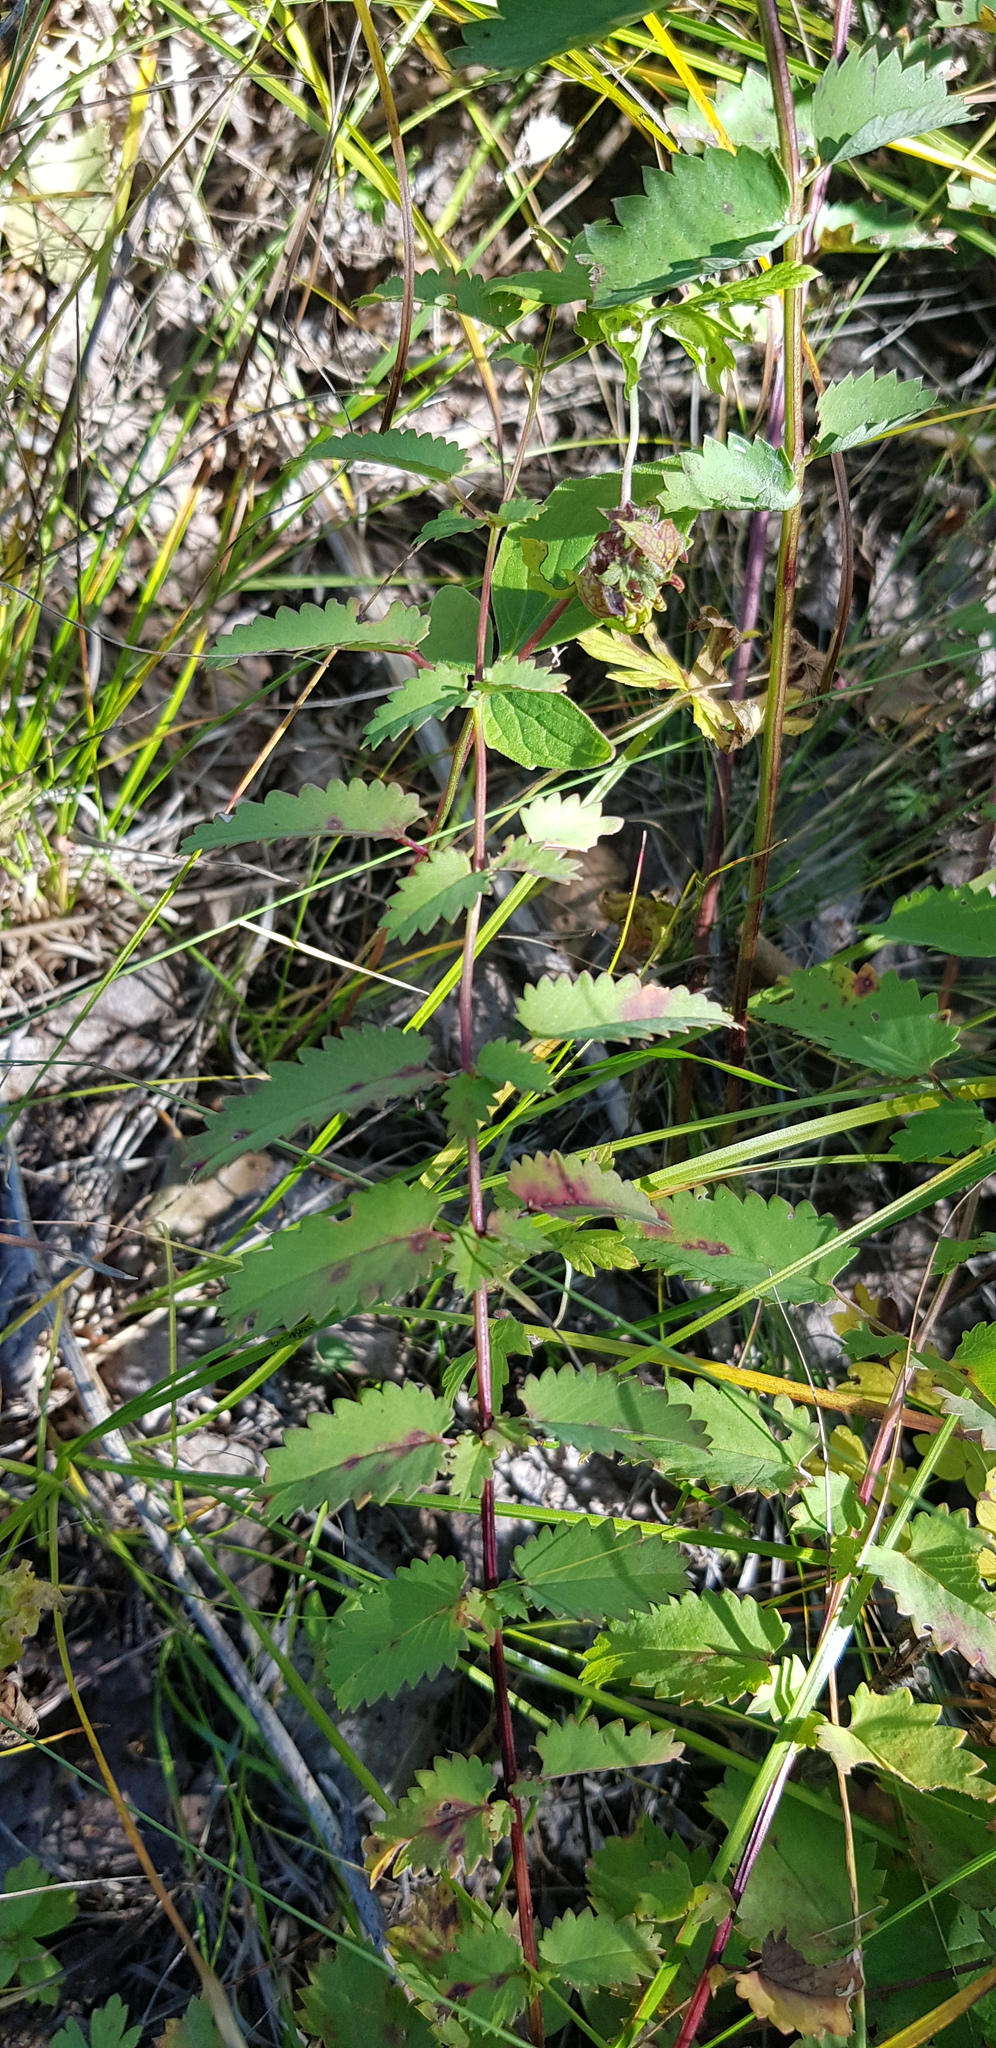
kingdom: Plantae
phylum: Tracheophyta
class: Magnoliopsida
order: Rosales
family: Rosaceae
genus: Sanguisorba
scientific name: Sanguisorba officinalis
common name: Great burnet
